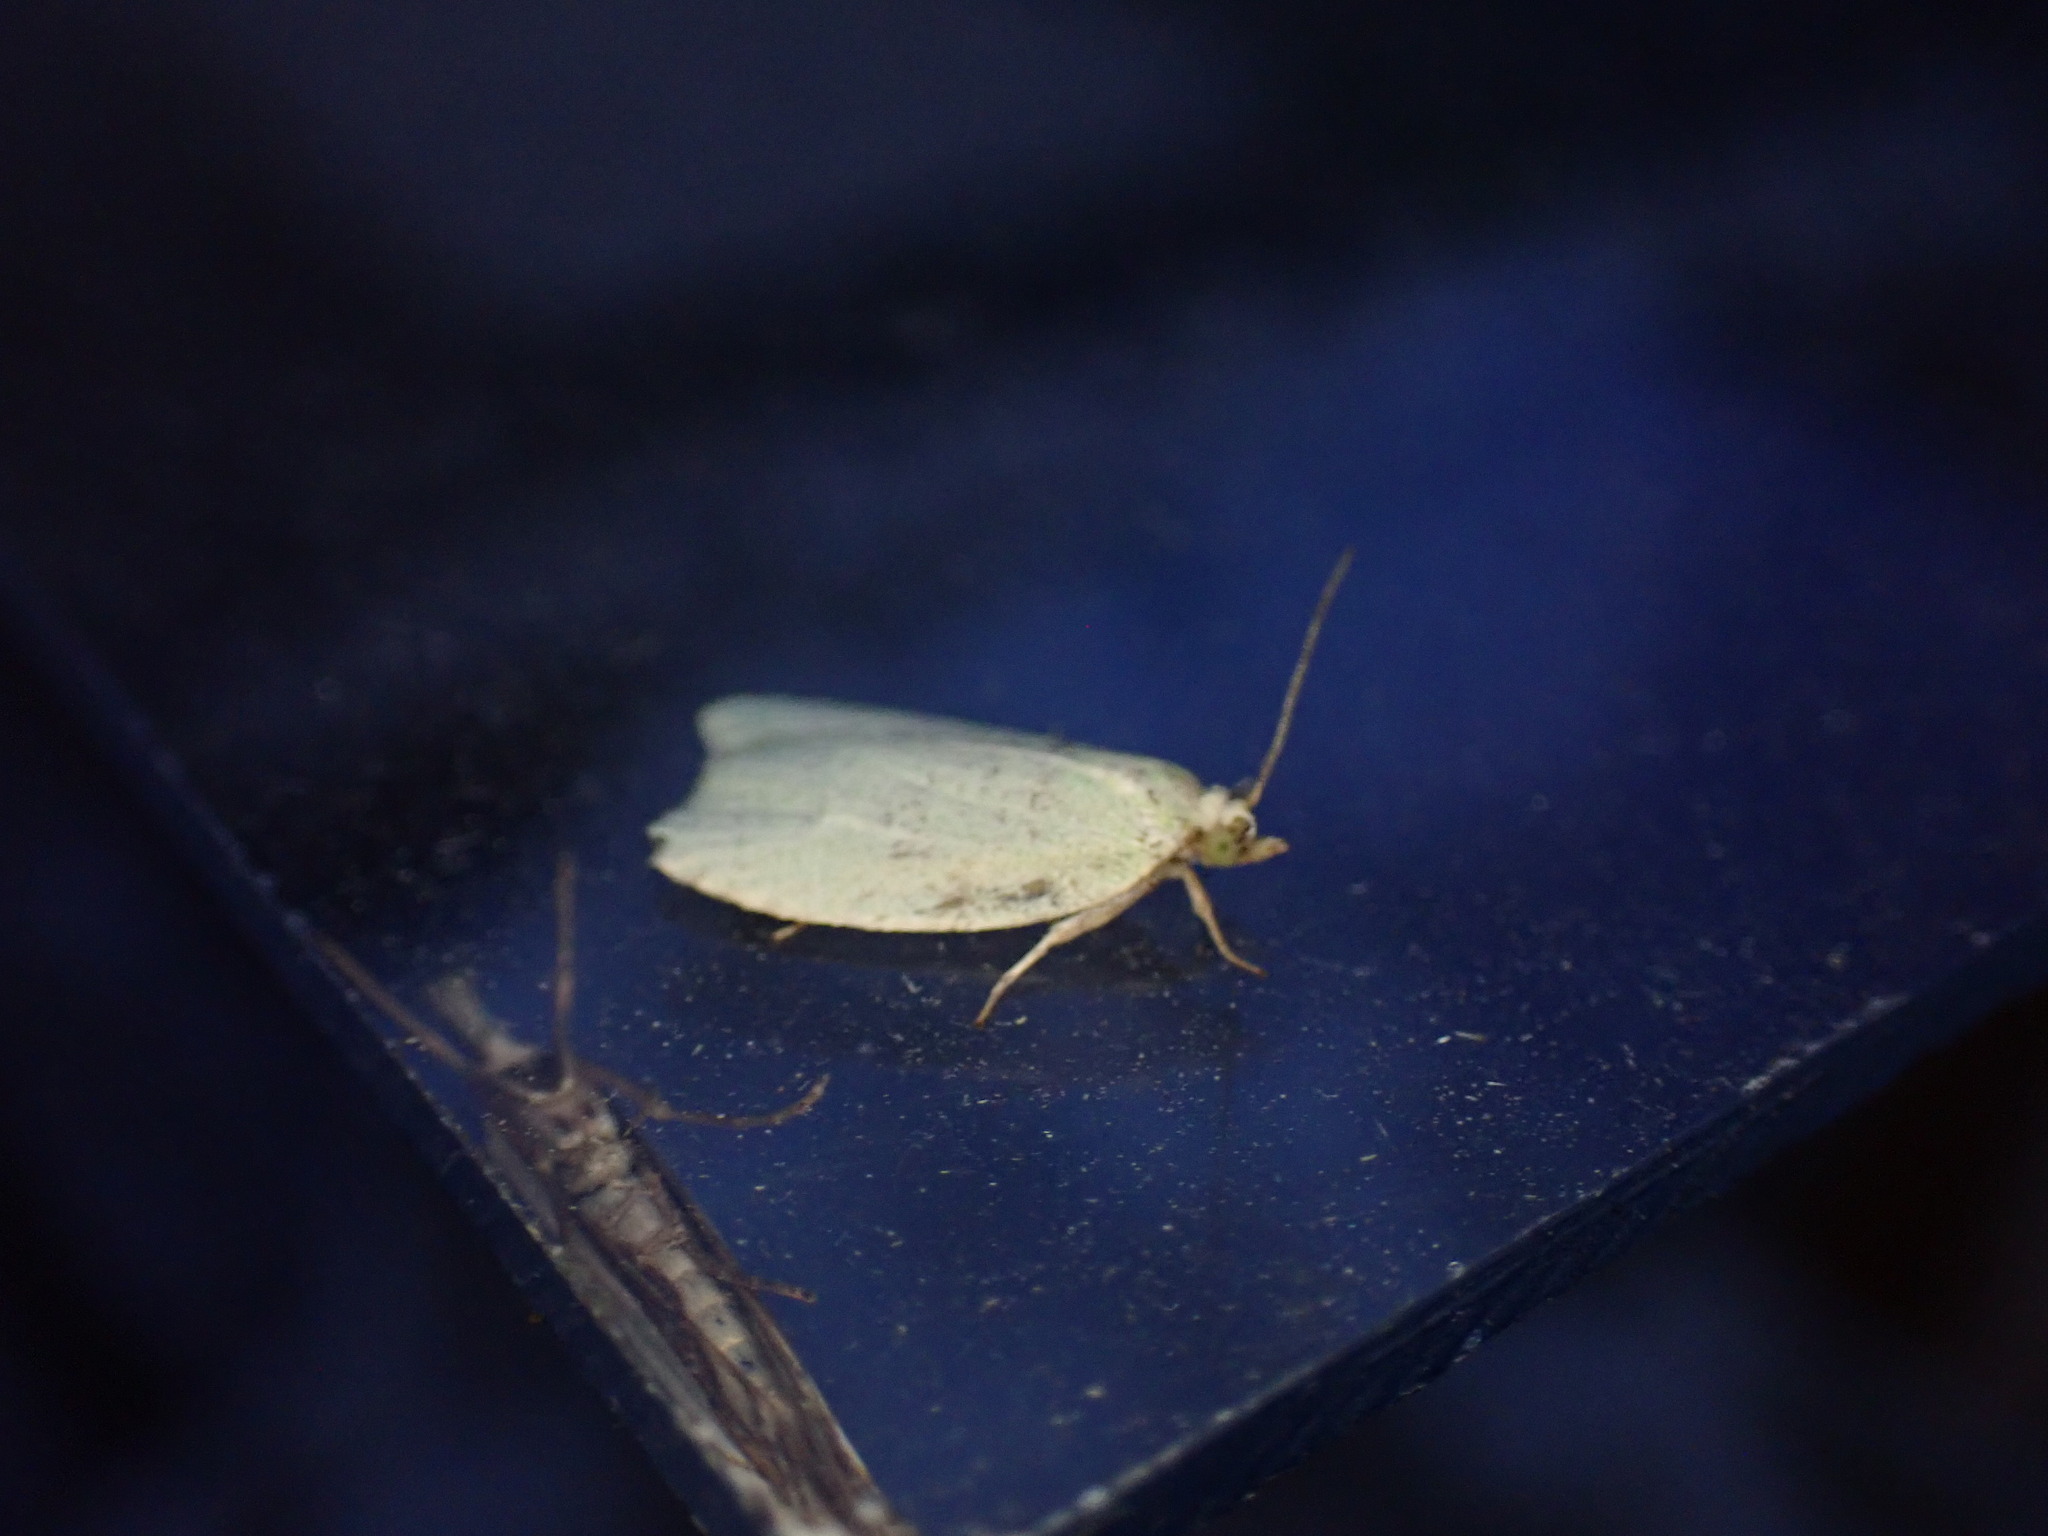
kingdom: Animalia
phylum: Arthropoda
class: Insecta
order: Lepidoptera
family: Tortricidae
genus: Tortrix
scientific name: Tortrix viridana
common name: Green oak tortrix
